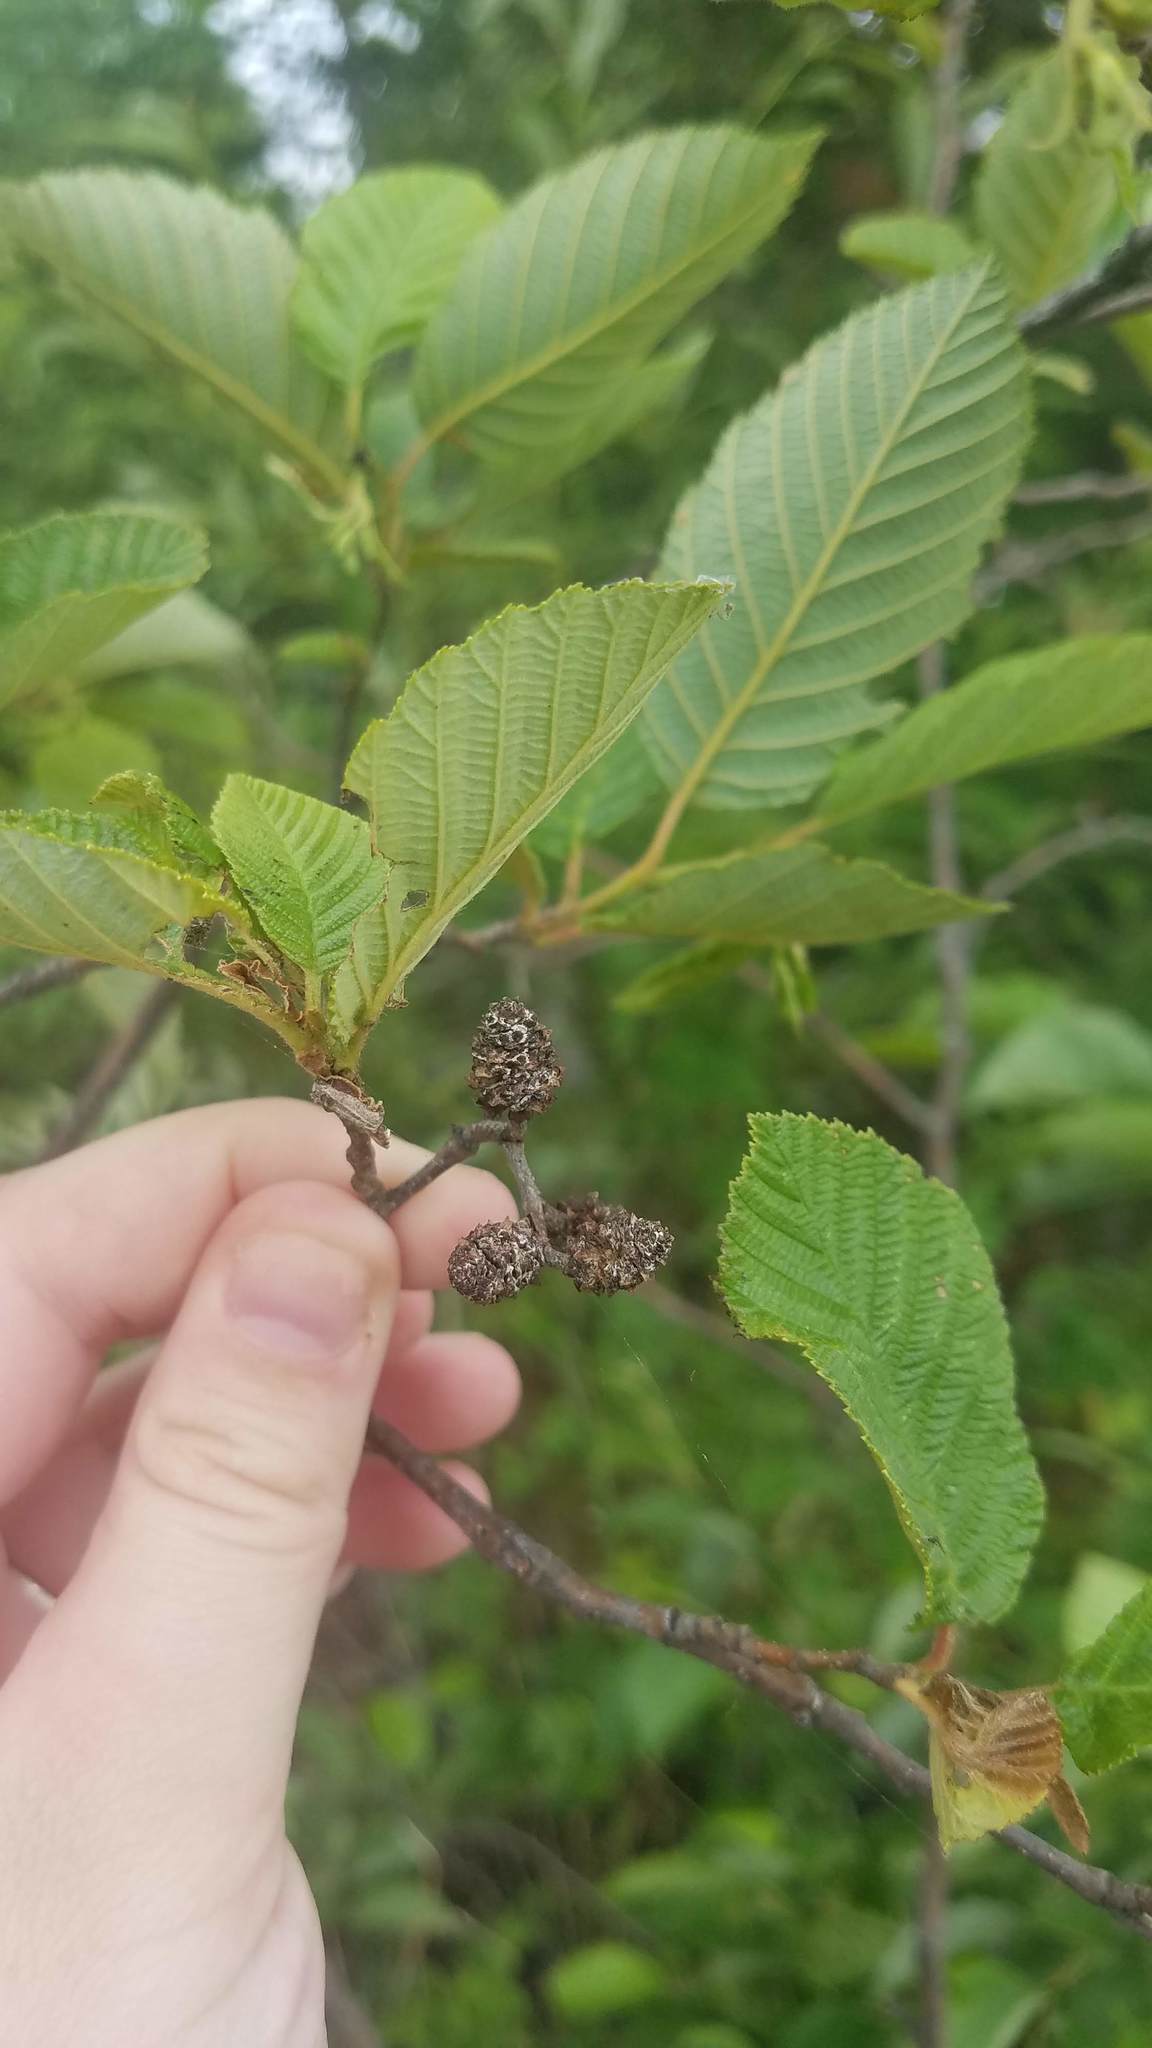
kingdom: Plantae
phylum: Tracheophyta
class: Magnoliopsida
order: Fagales
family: Betulaceae
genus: Alnus
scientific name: Alnus incana
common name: Grey alder
